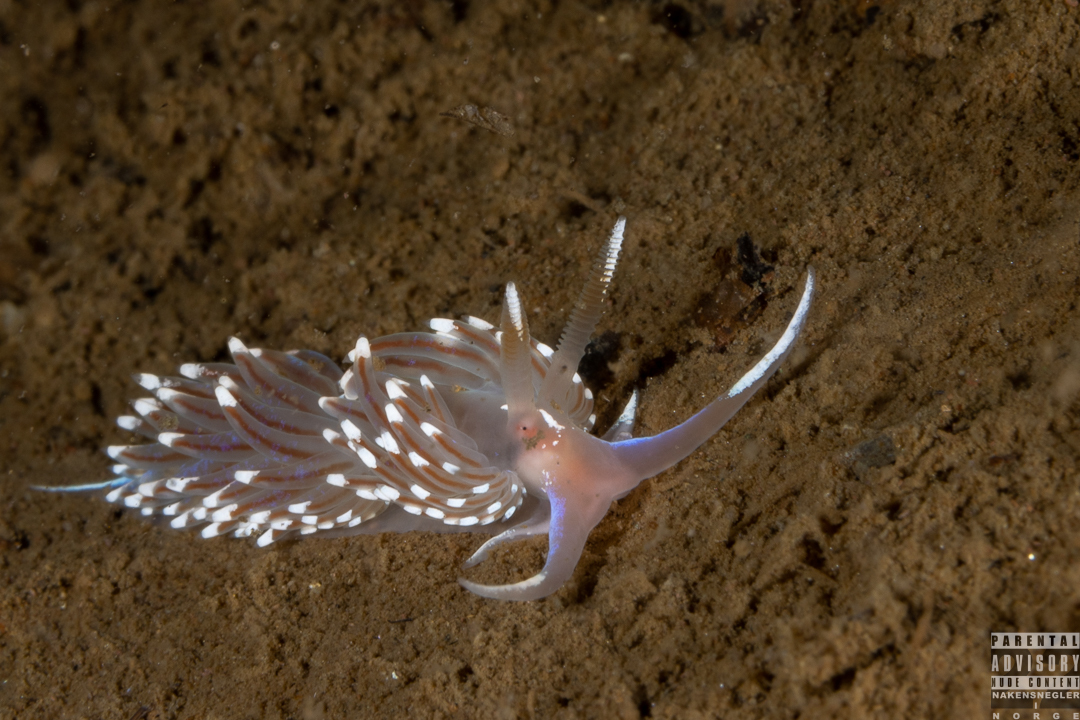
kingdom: Animalia
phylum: Mollusca
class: Gastropoda
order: Nudibranchia
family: Facelinidae
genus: Facelina
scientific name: Facelina bostoniensis
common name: Boston facelina
